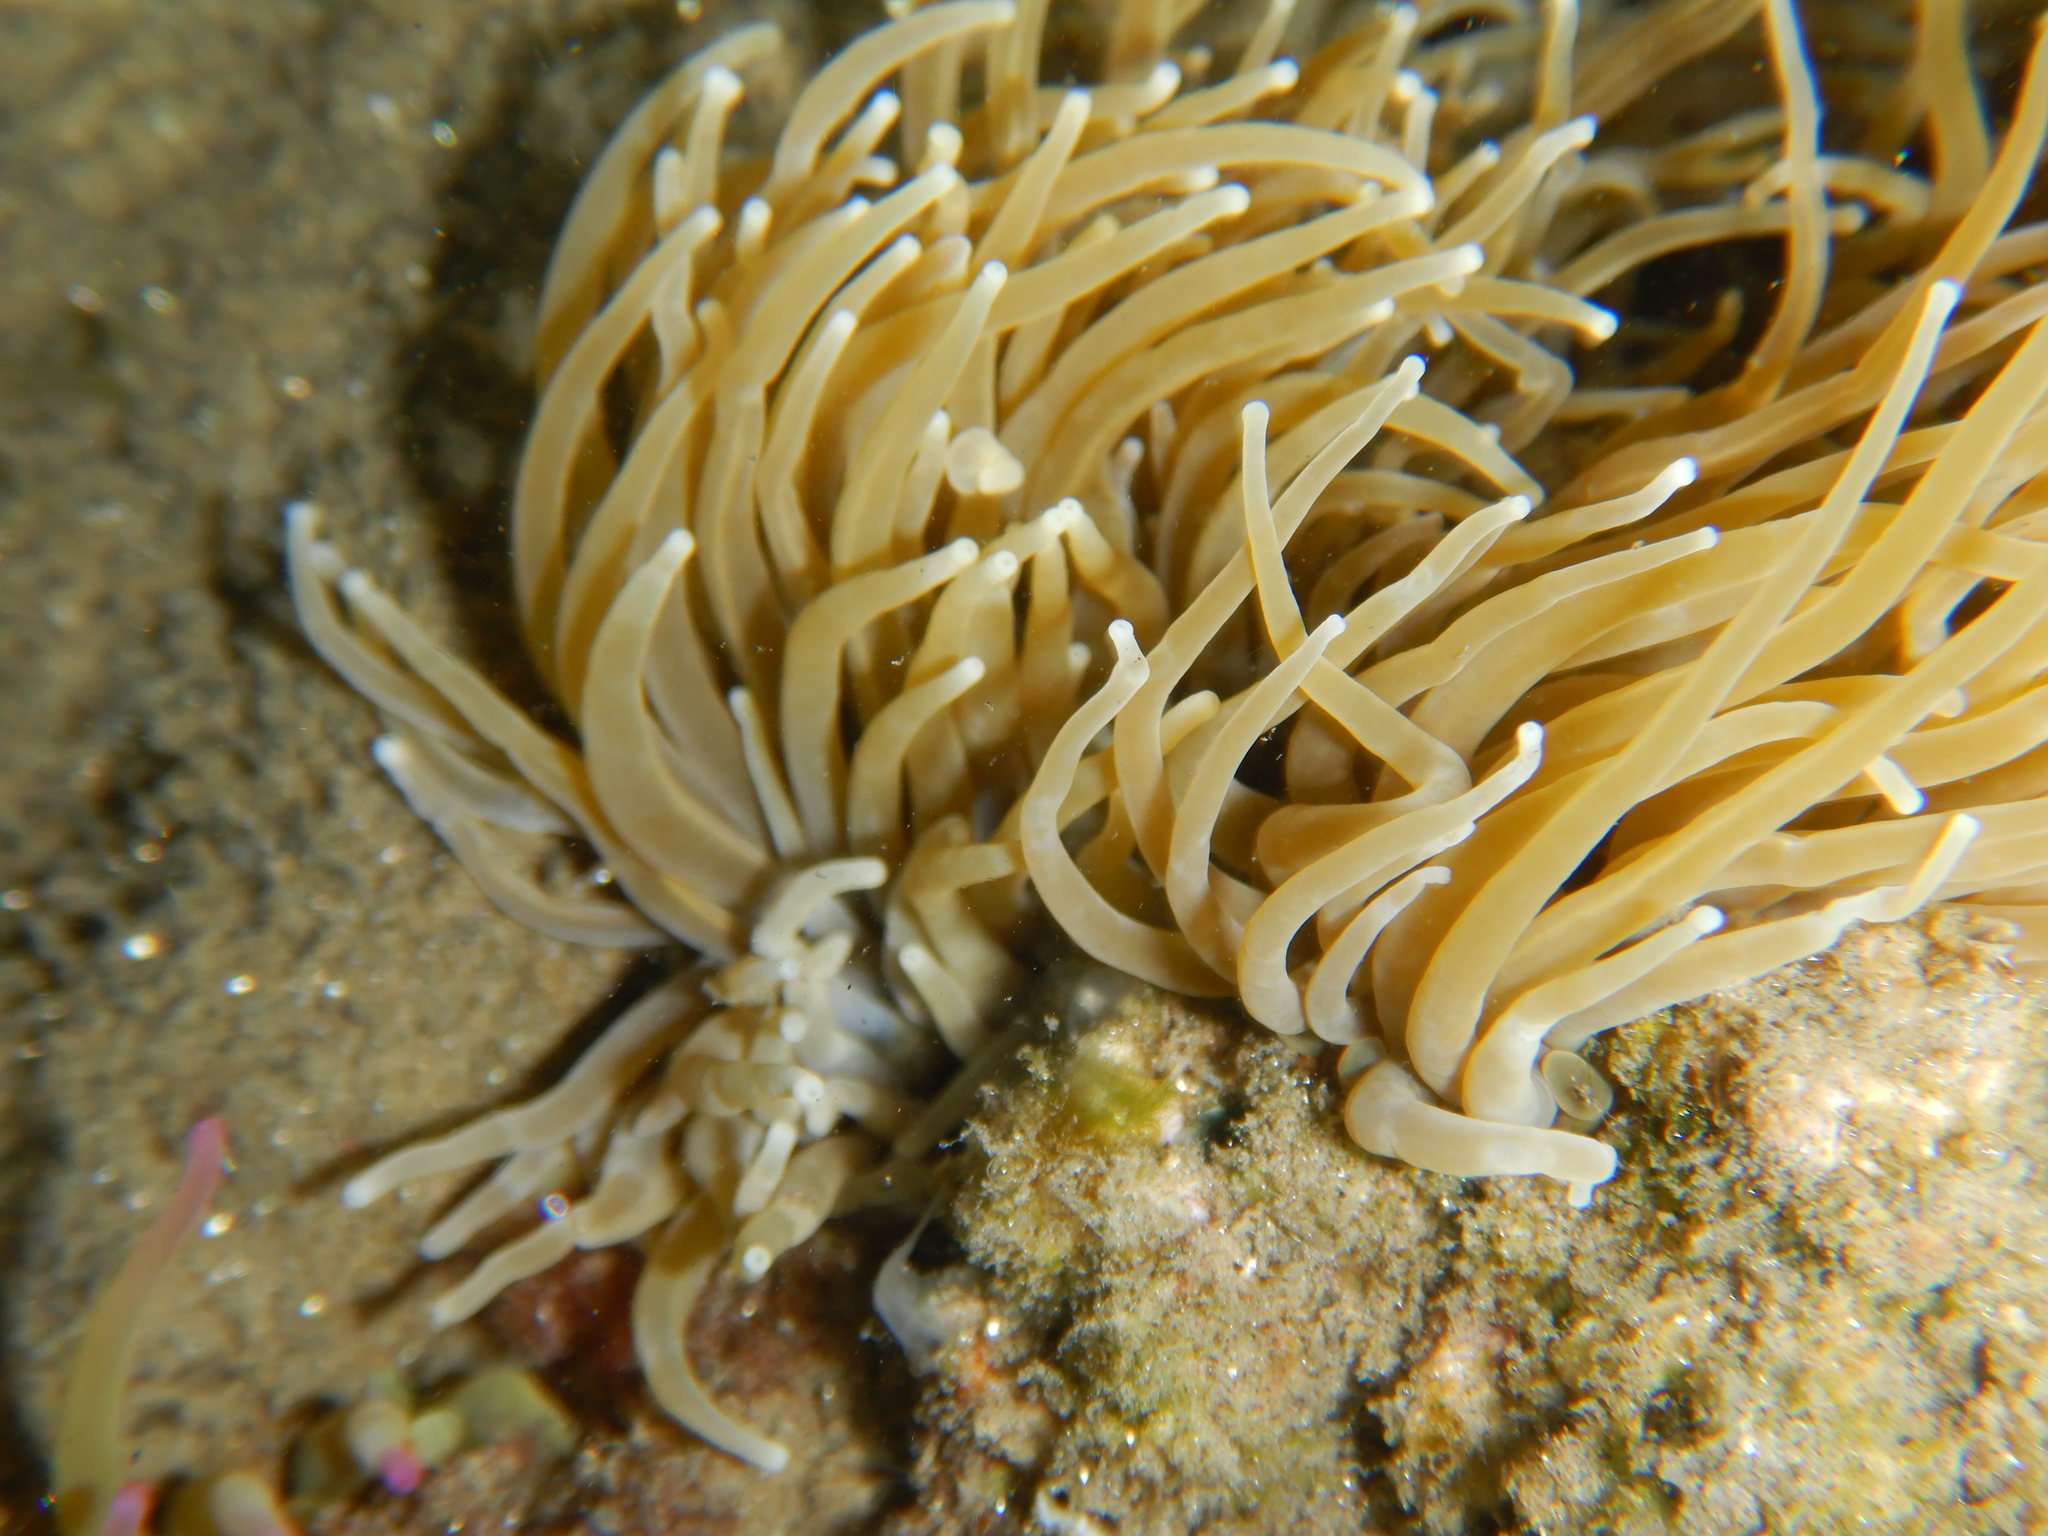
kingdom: Animalia
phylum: Cnidaria
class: Anthozoa
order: Actiniaria
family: Actiniidae
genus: Anemonia
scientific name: Anemonia viridis
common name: Snakelocks anemone
